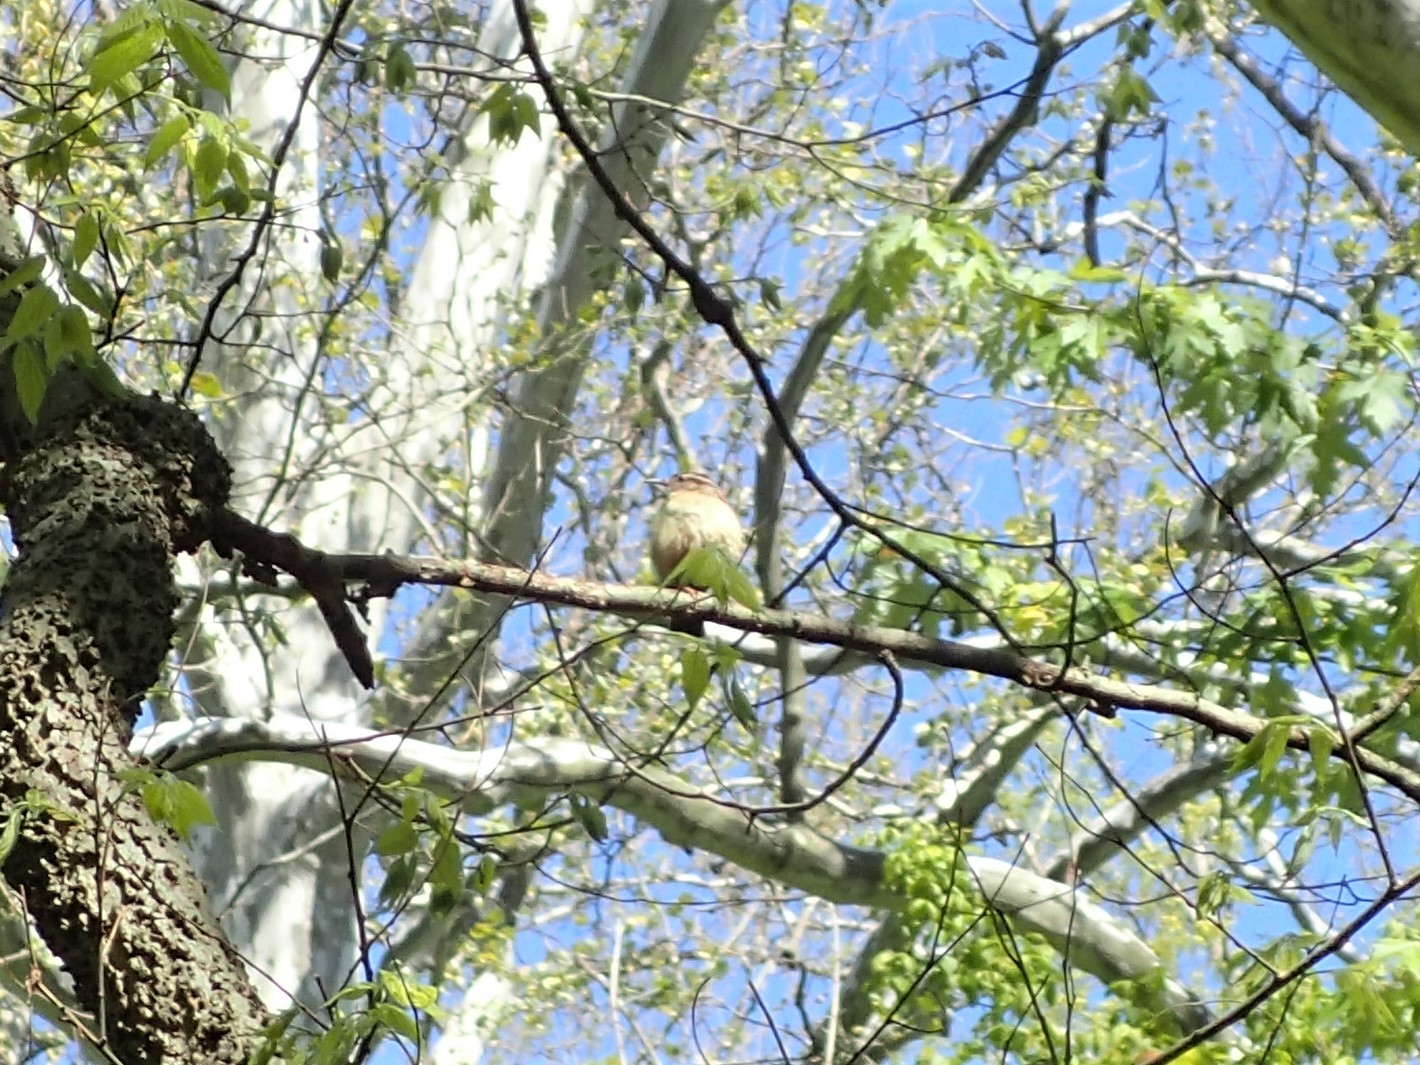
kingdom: Animalia
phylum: Chordata
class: Aves
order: Passeriformes
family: Troglodytidae
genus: Thryothorus
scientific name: Thryothorus ludovicianus
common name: Carolina wren
